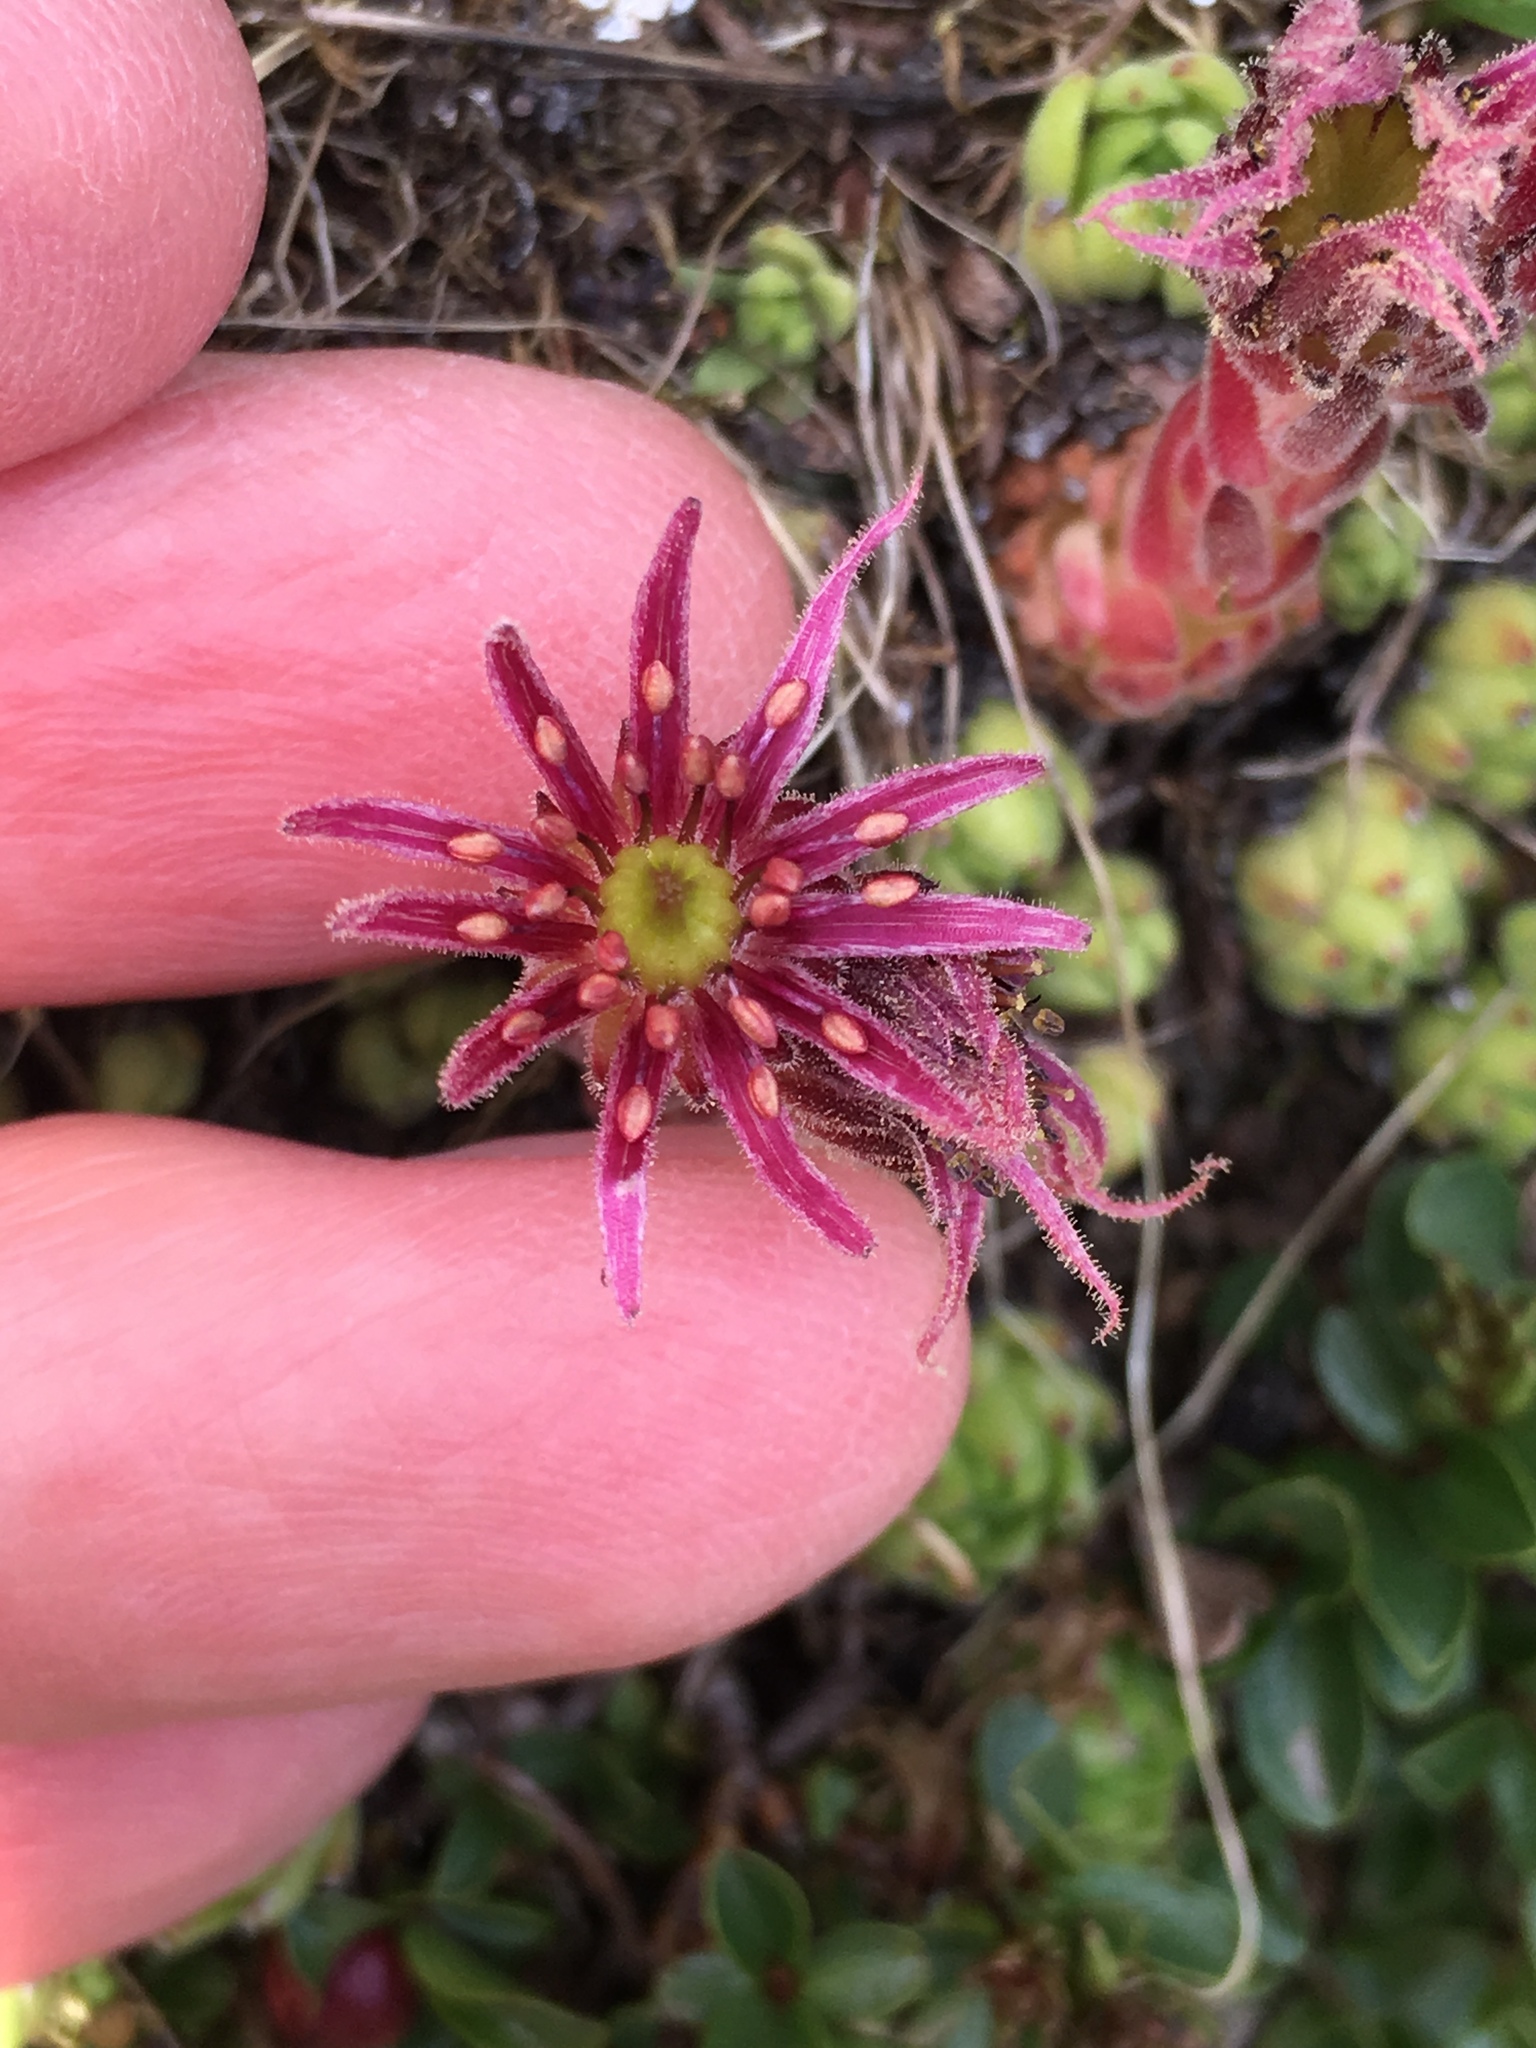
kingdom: Plantae
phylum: Tracheophyta
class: Magnoliopsida
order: Saxifragales
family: Crassulaceae
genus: Sempervivum
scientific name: Sempervivum montanum
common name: Mountain house-leek
